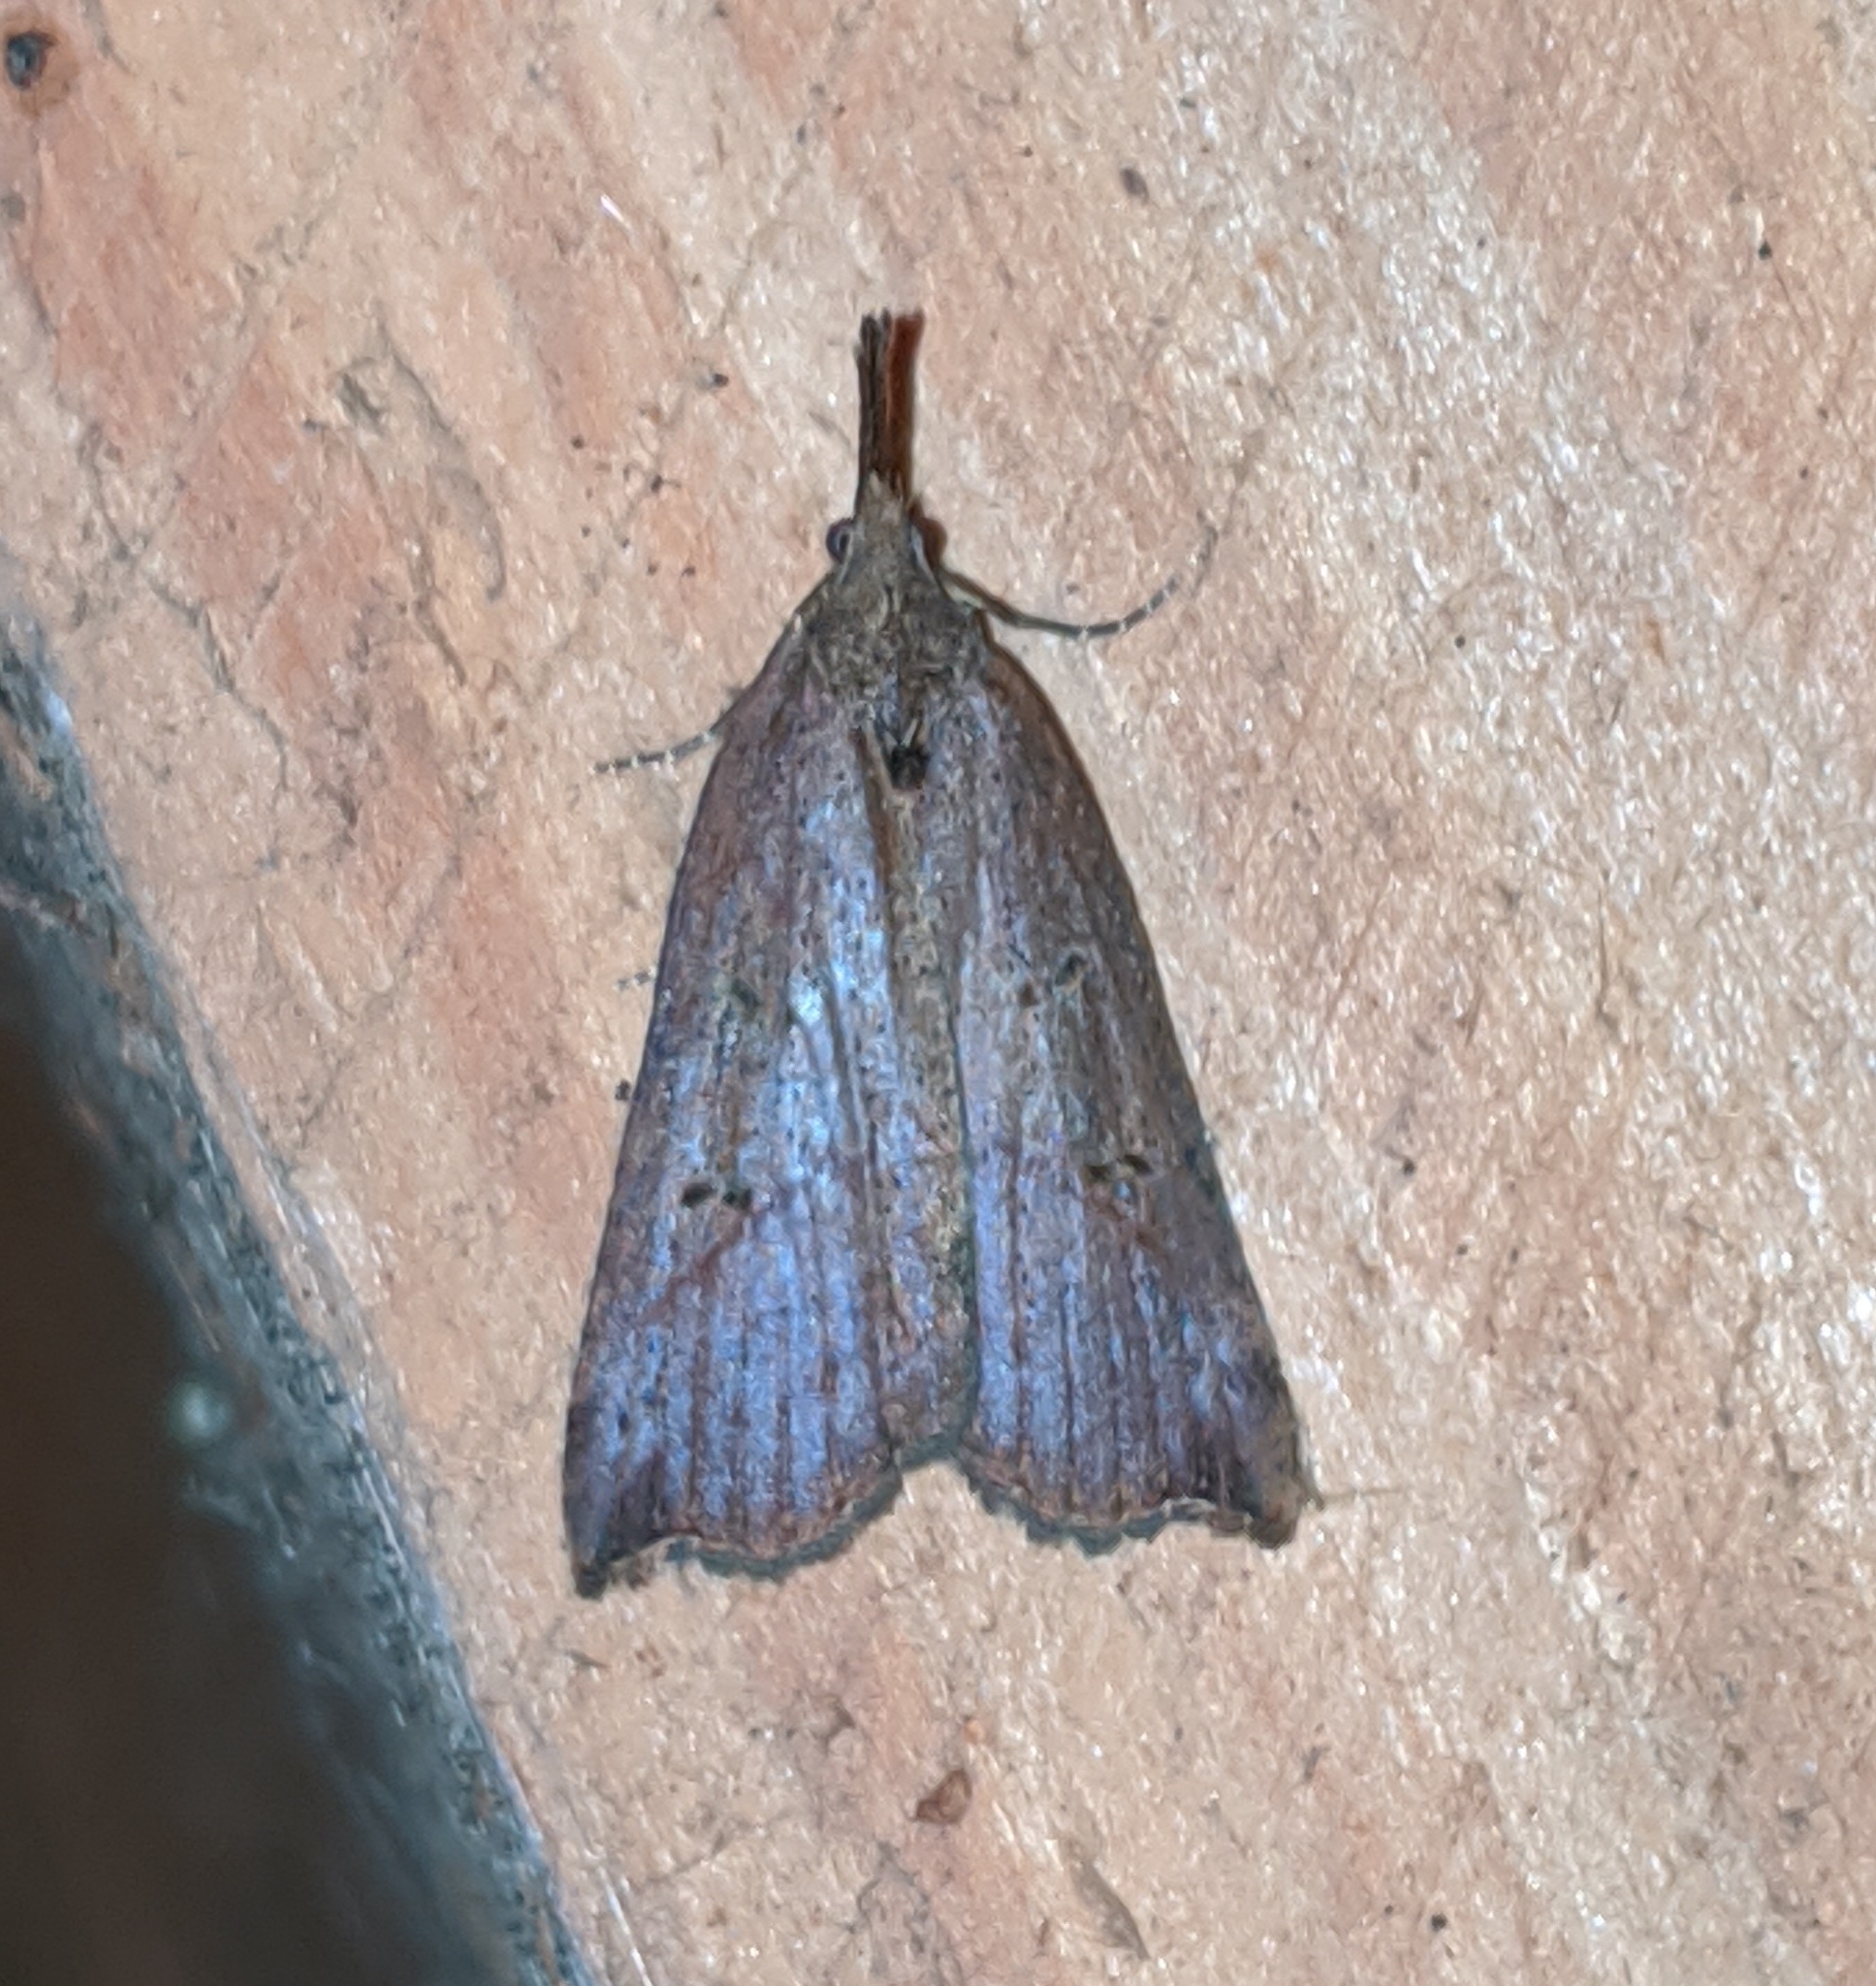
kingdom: Animalia
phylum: Arthropoda
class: Insecta
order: Lepidoptera
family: Erebidae
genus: Hypena
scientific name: Hypena californica
